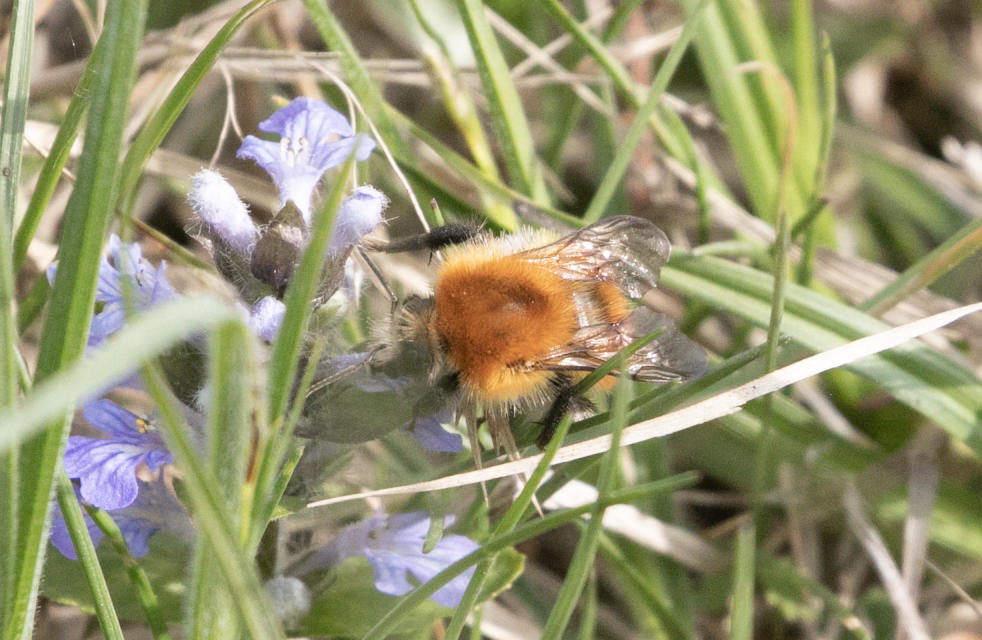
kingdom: Animalia
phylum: Arthropoda
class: Insecta
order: Hymenoptera
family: Apidae
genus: Bombus
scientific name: Bombus pascuorum
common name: Common carder bee
